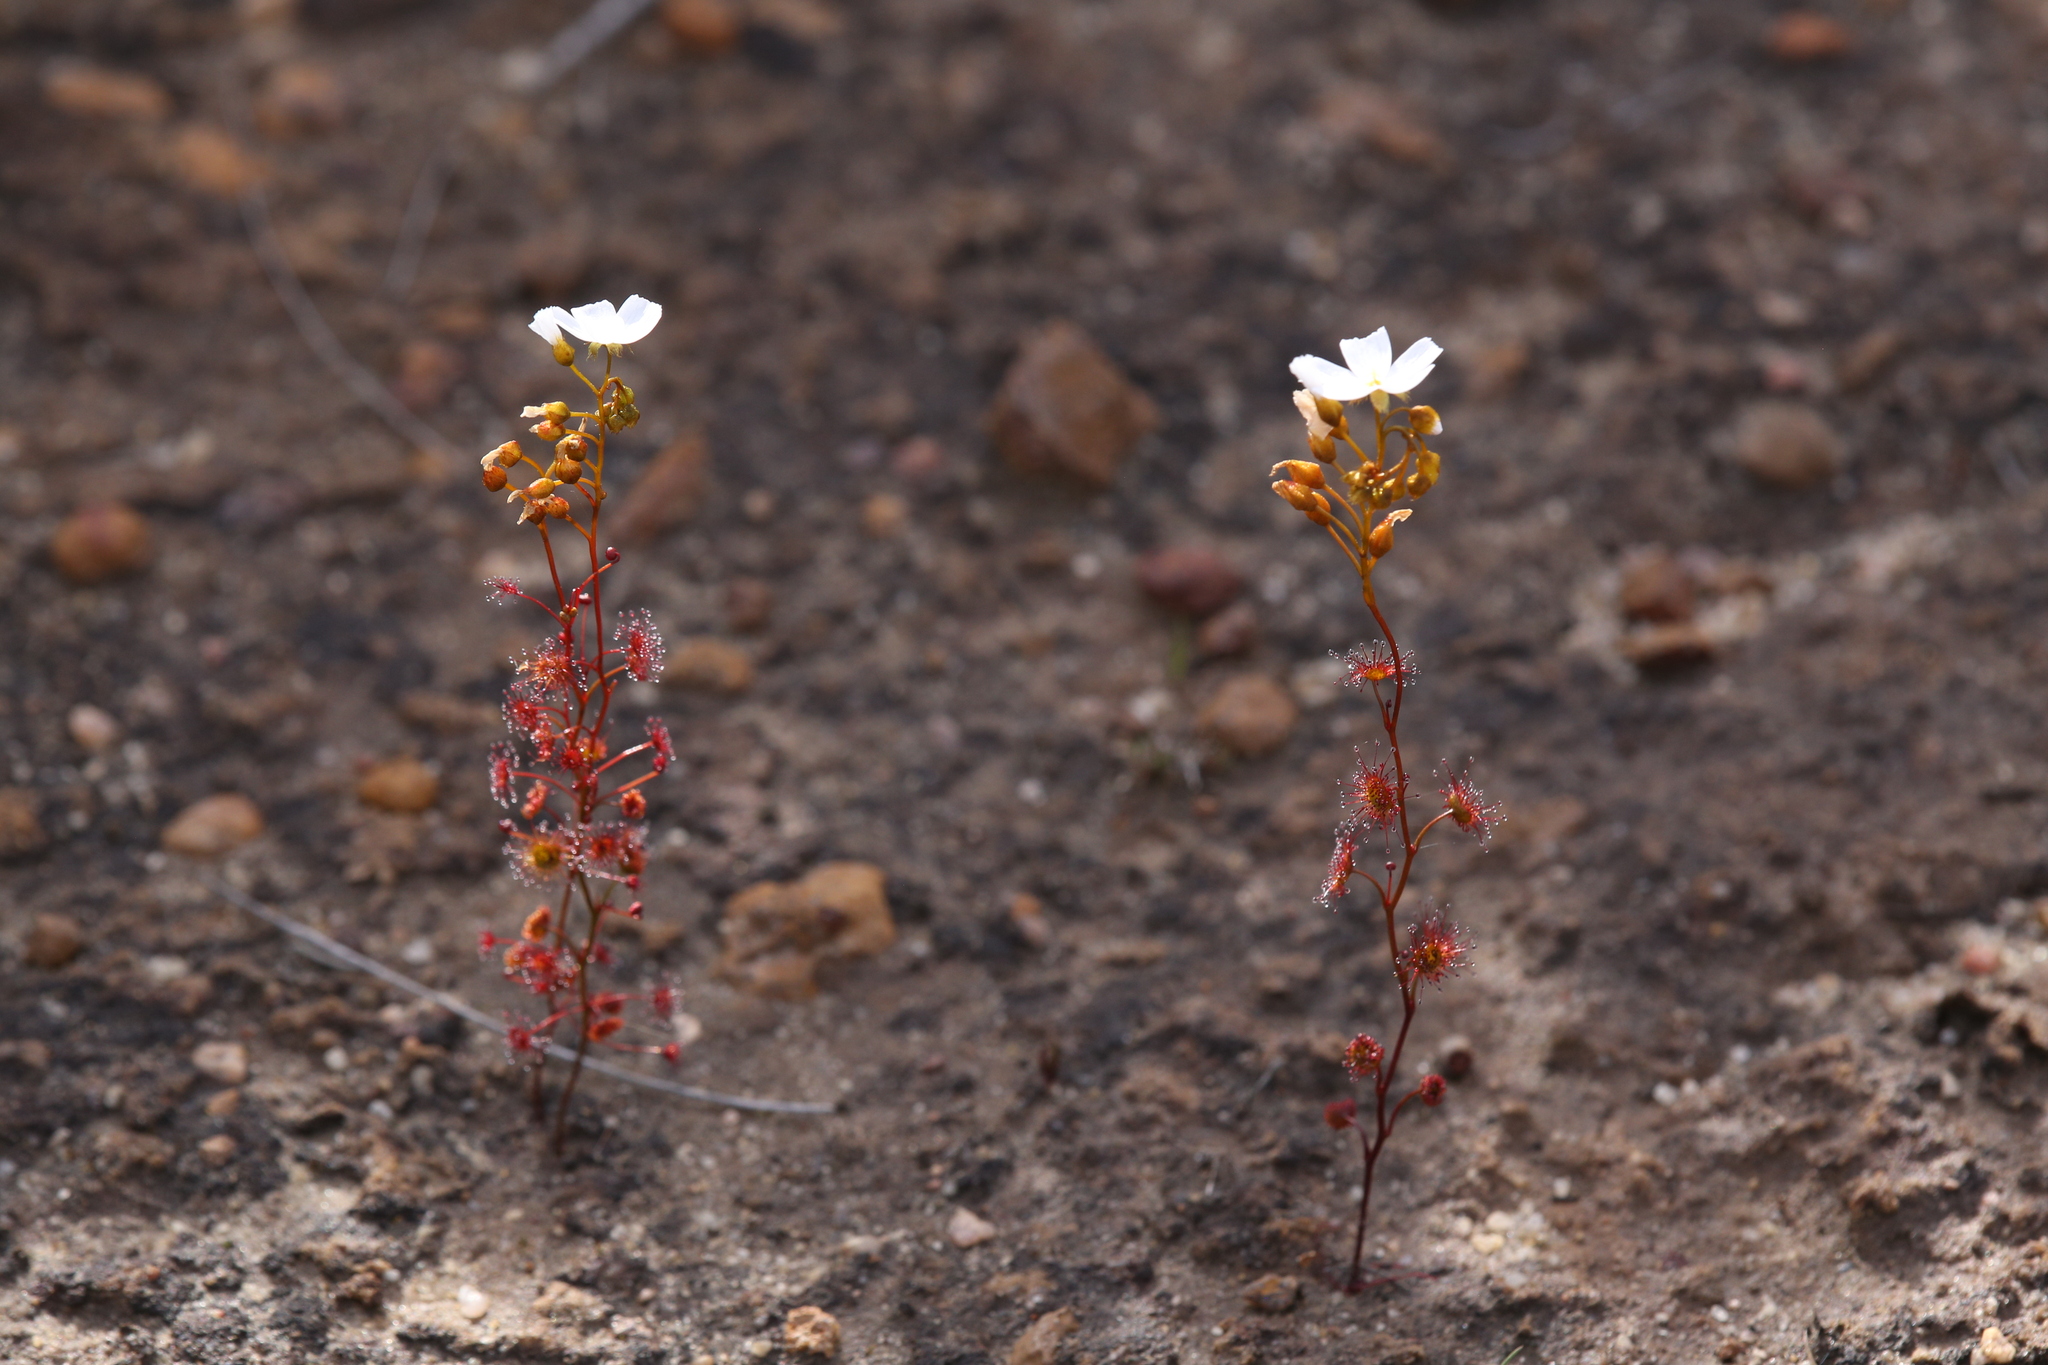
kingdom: Plantae
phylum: Tracheophyta
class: Magnoliopsida
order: Caryophyllales
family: Droseraceae
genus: Drosera
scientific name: Drosera radicans
